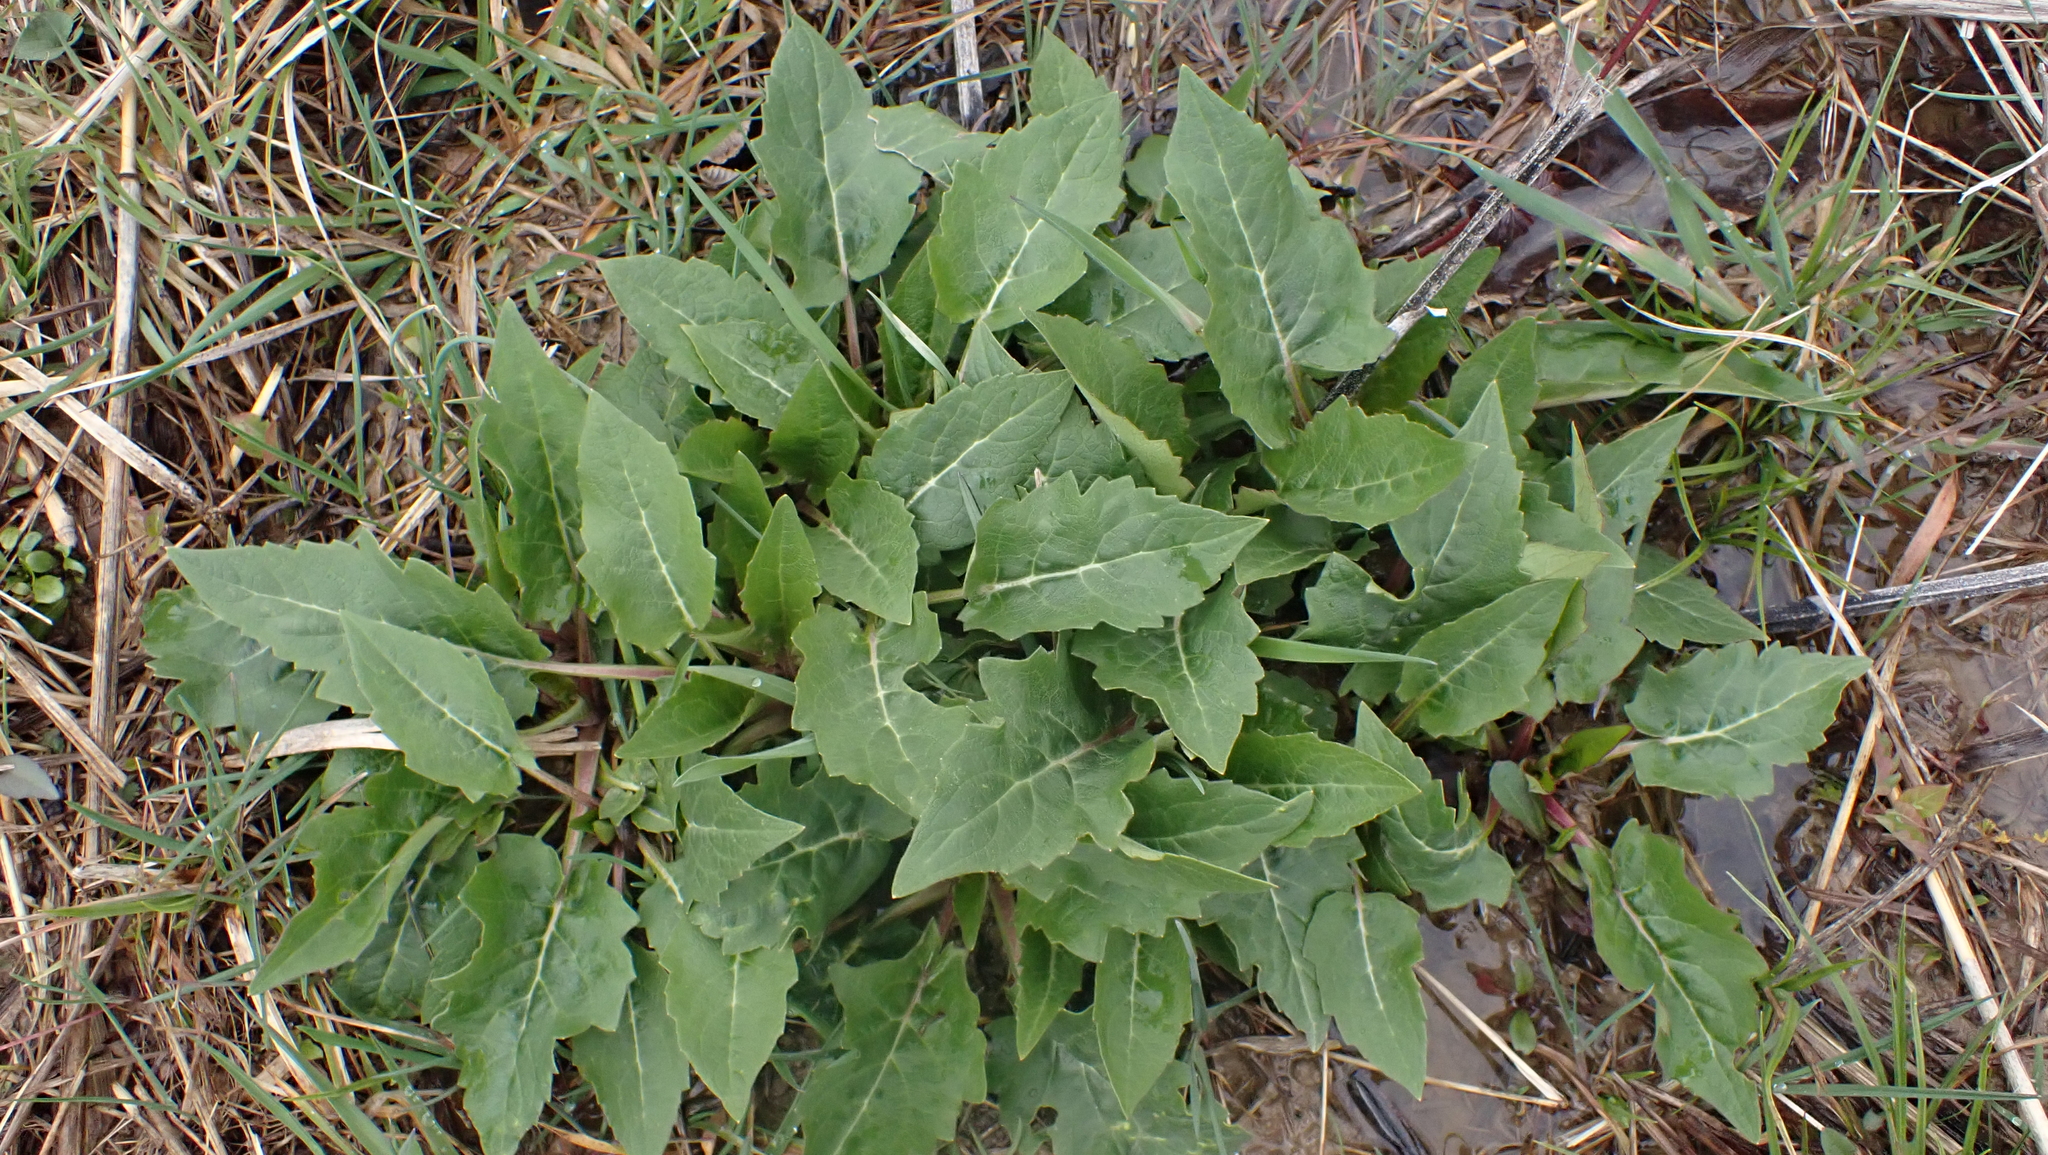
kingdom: Plantae
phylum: Tracheophyta
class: Magnoliopsida
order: Asterales
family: Asteraceae
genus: Silphium
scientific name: Silphium perfoliatum
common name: Cup-plant
